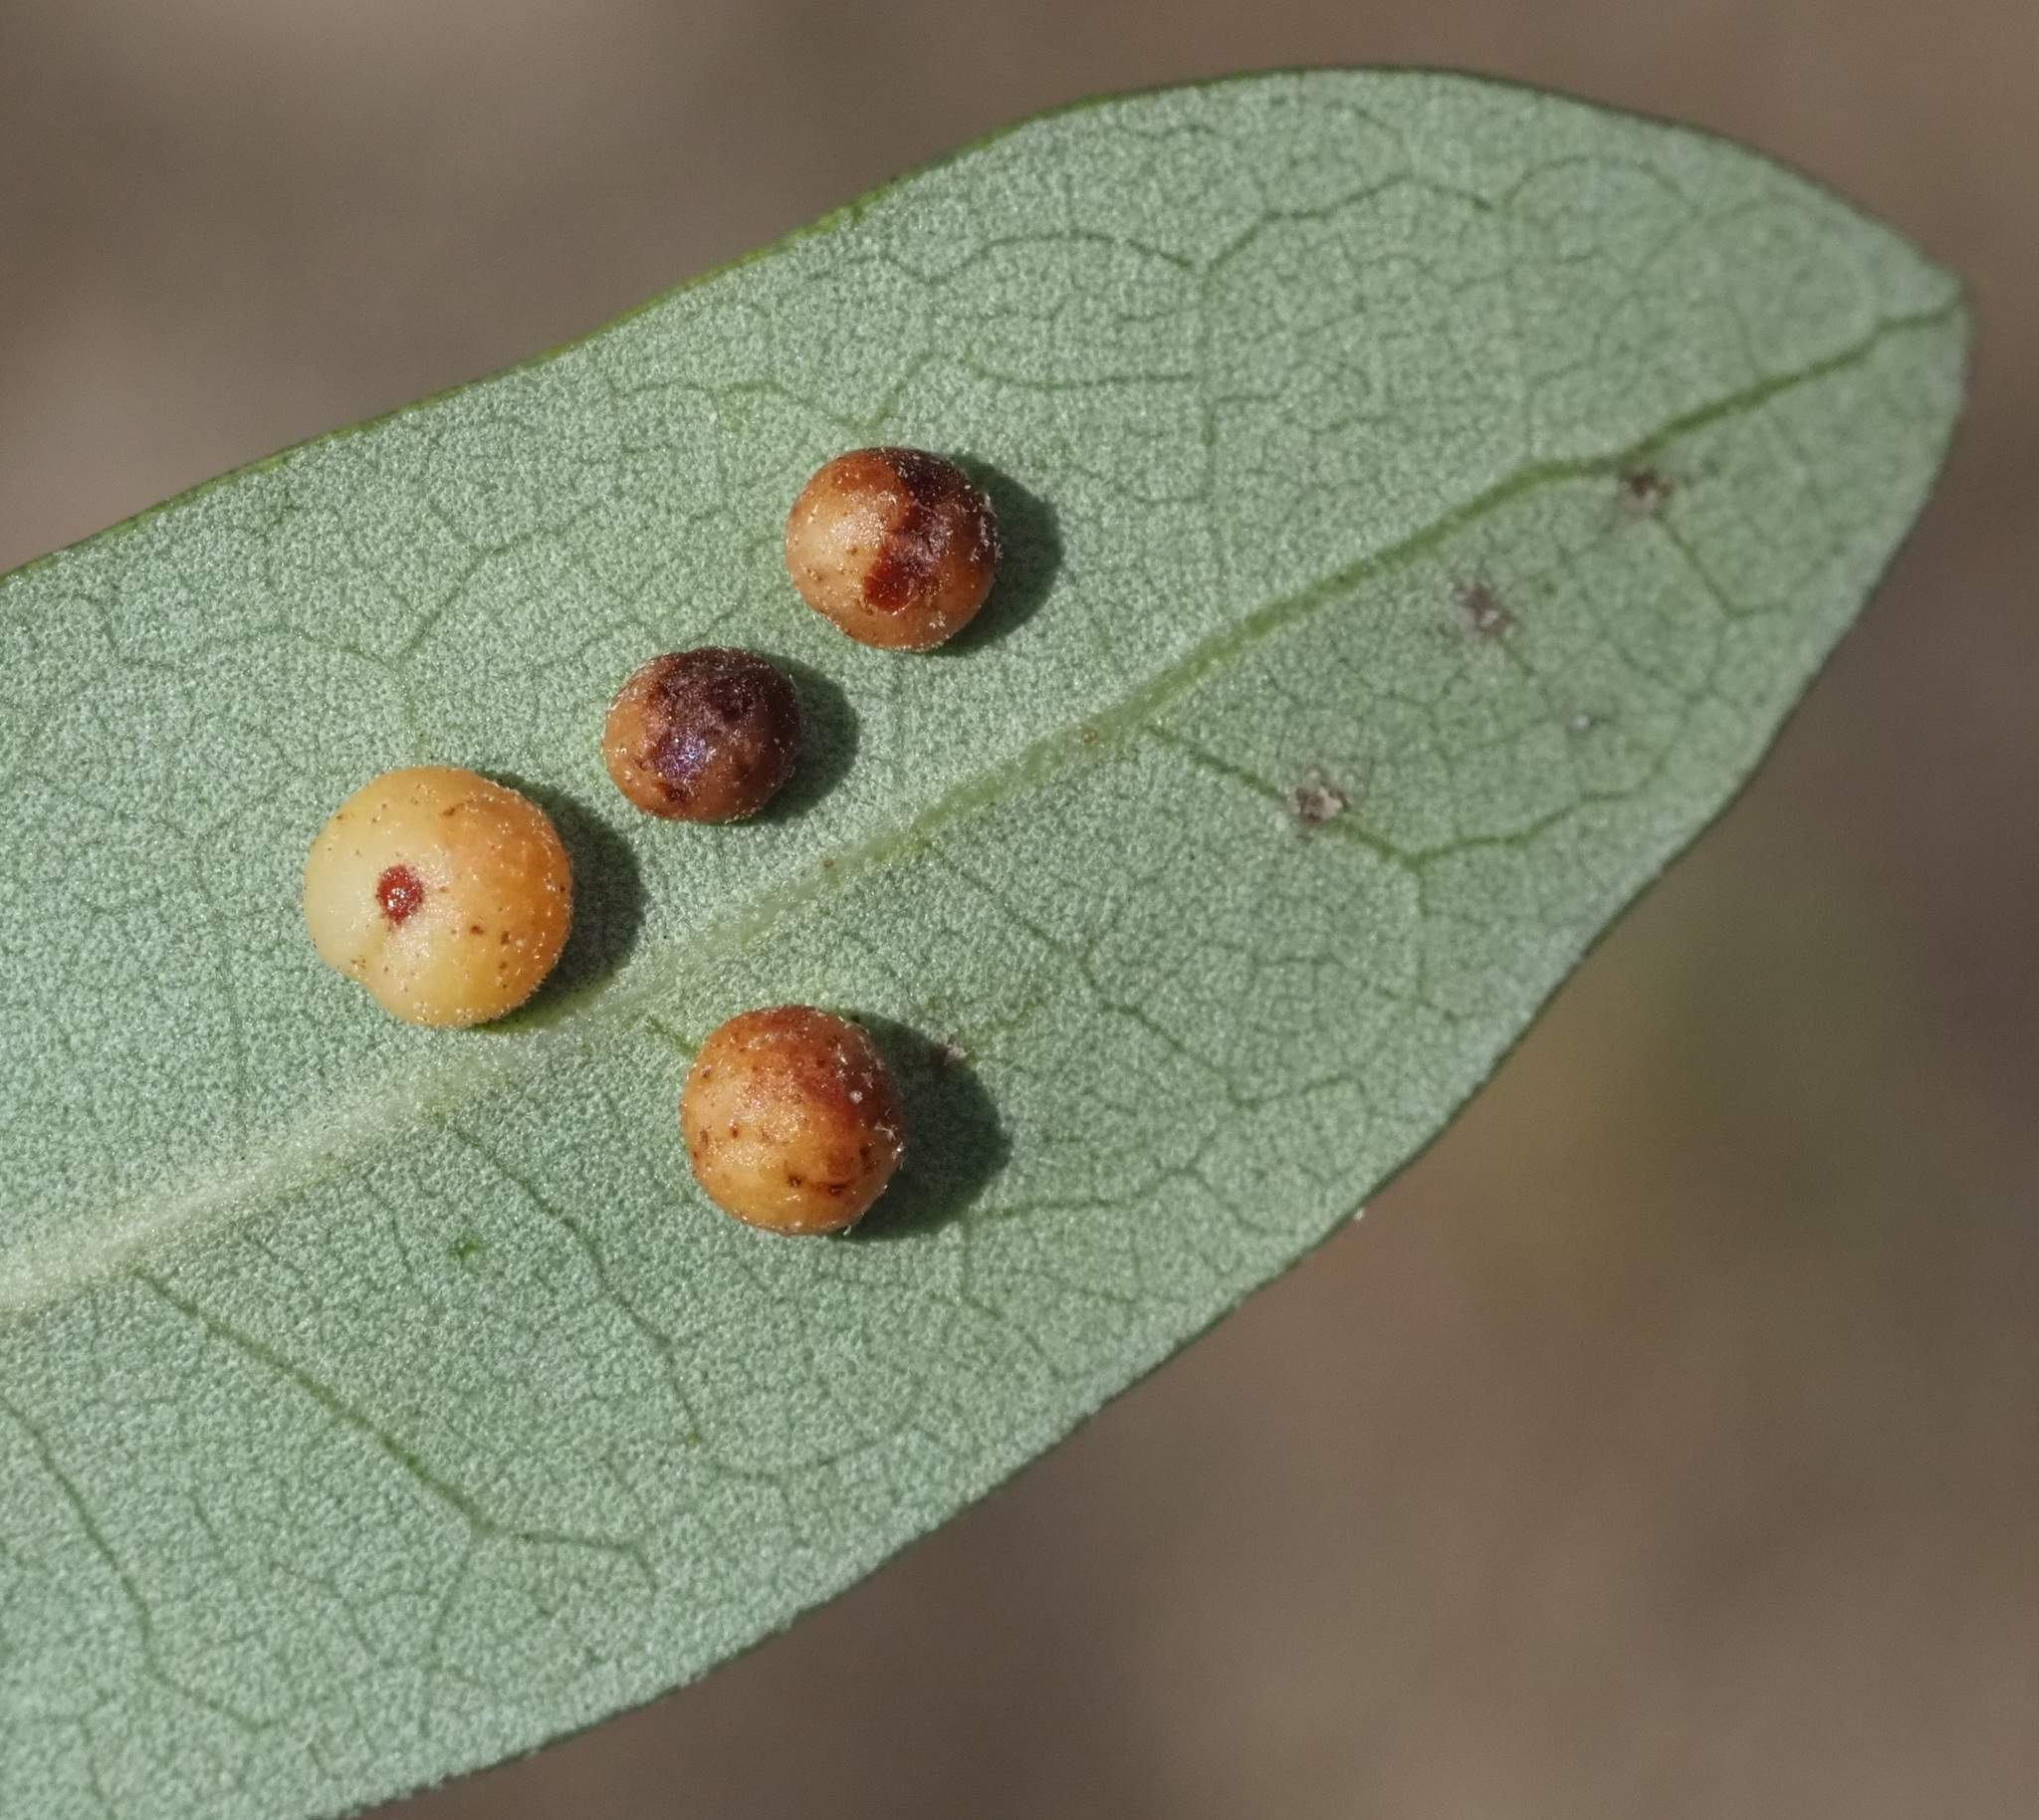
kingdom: Animalia
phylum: Arthropoda
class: Insecta
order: Hymenoptera
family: Cynipidae
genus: Belonocnema
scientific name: Belonocnema kinseyi
